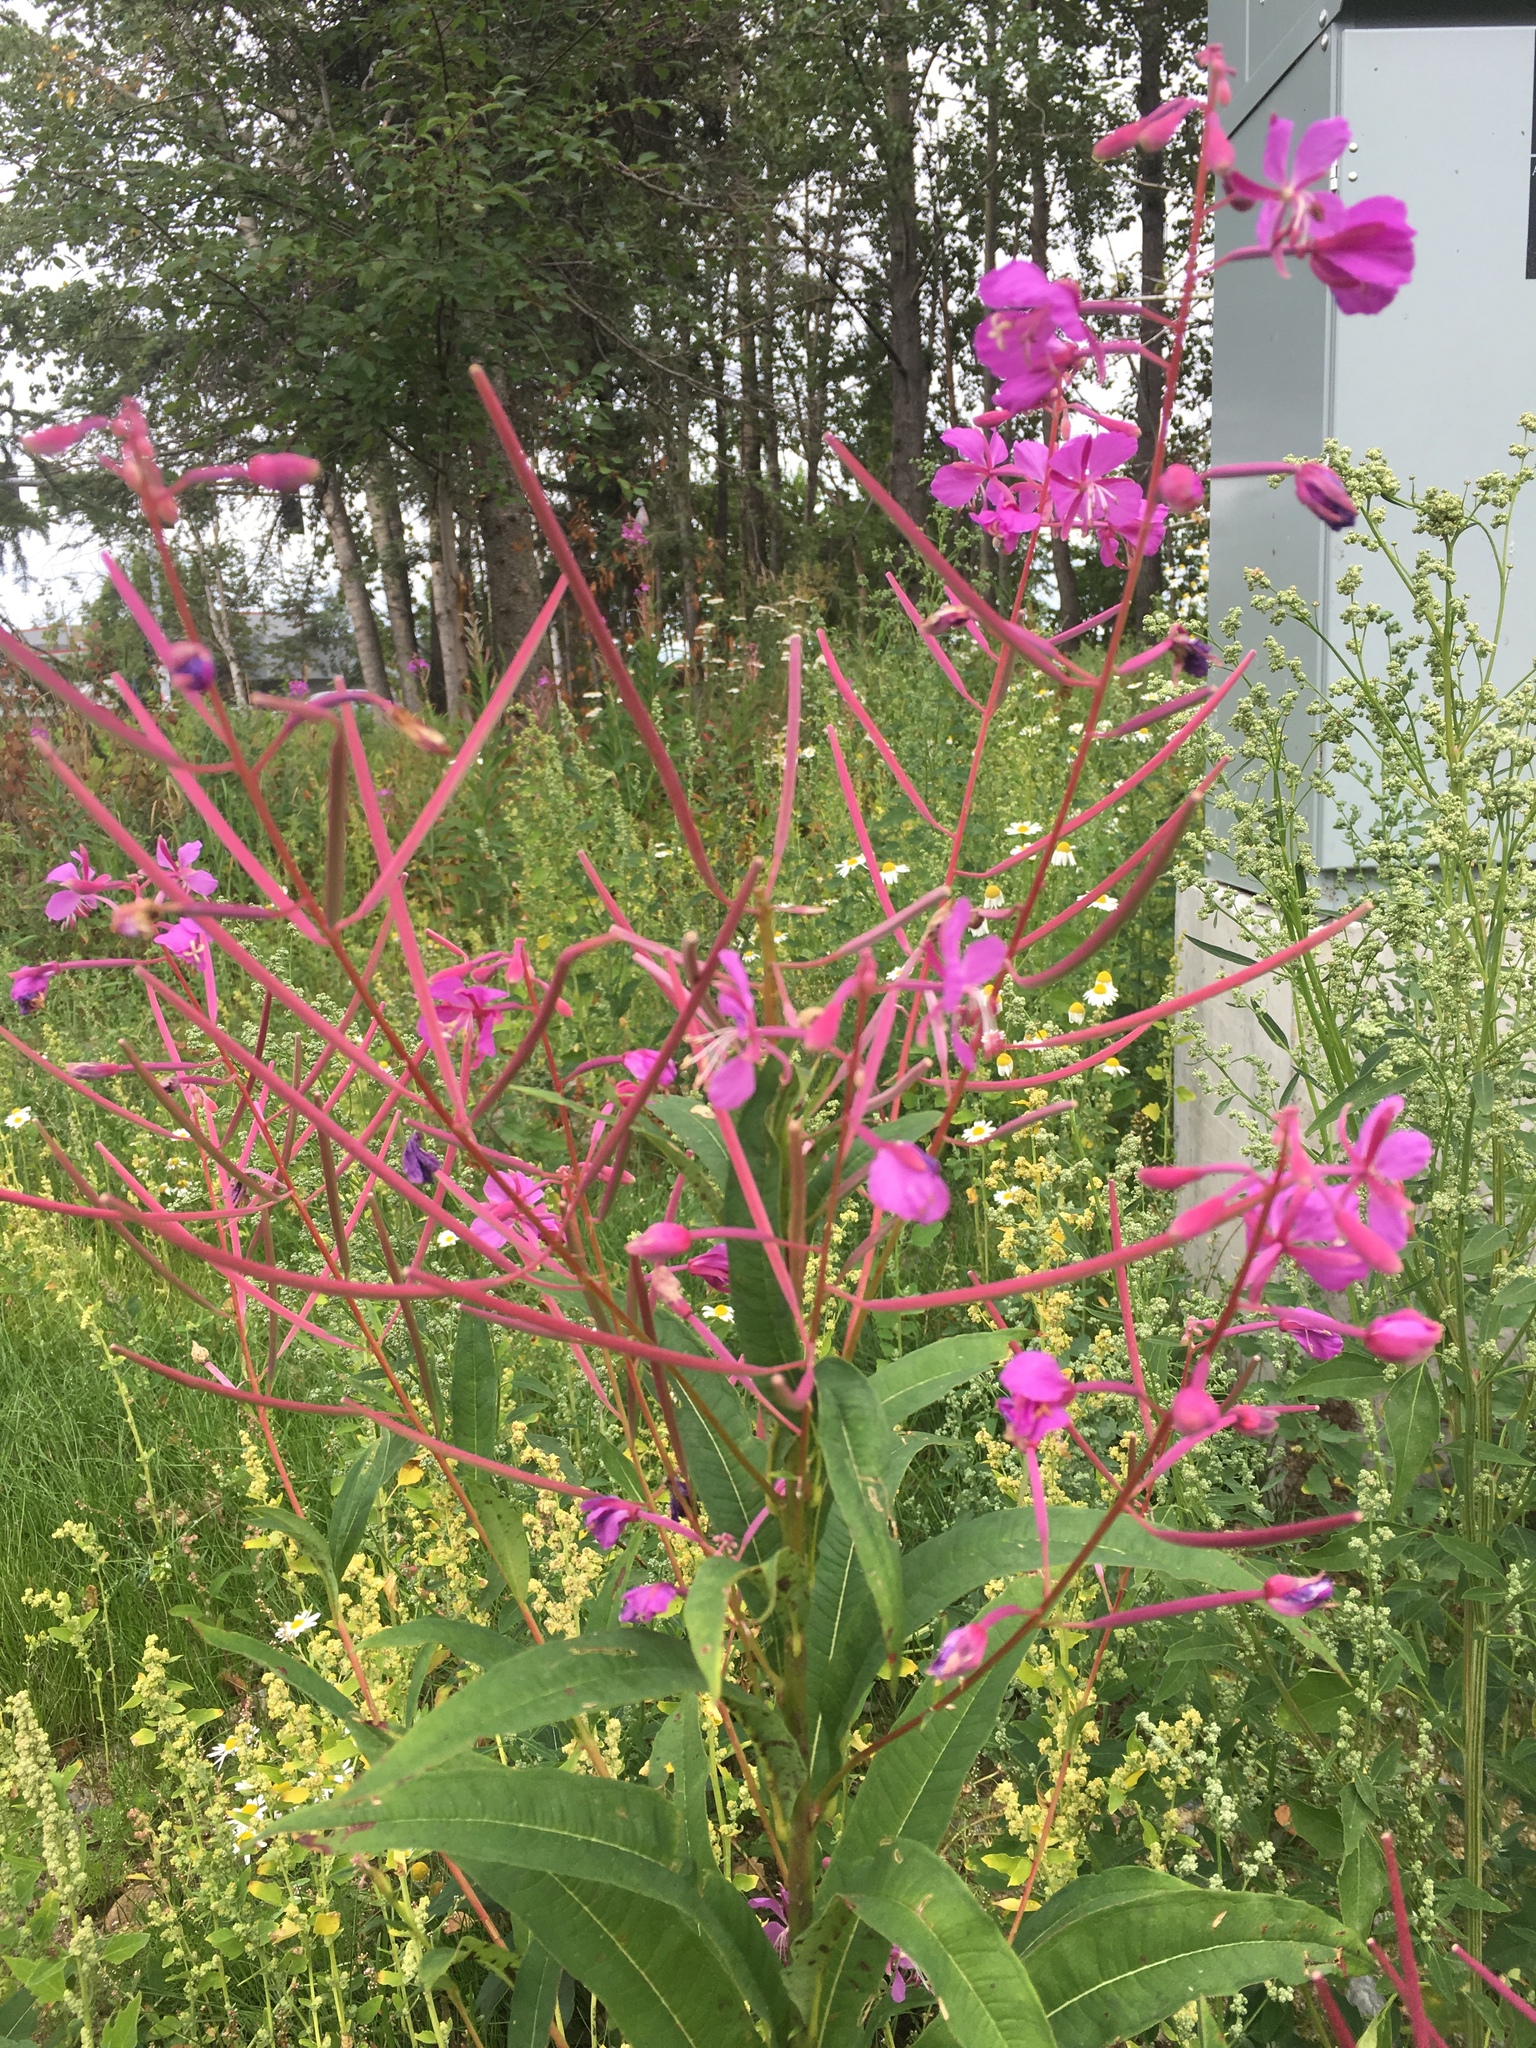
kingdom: Plantae
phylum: Tracheophyta
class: Magnoliopsida
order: Myrtales
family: Onagraceae
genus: Chamaenerion
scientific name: Chamaenerion angustifolium
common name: Fireweed
